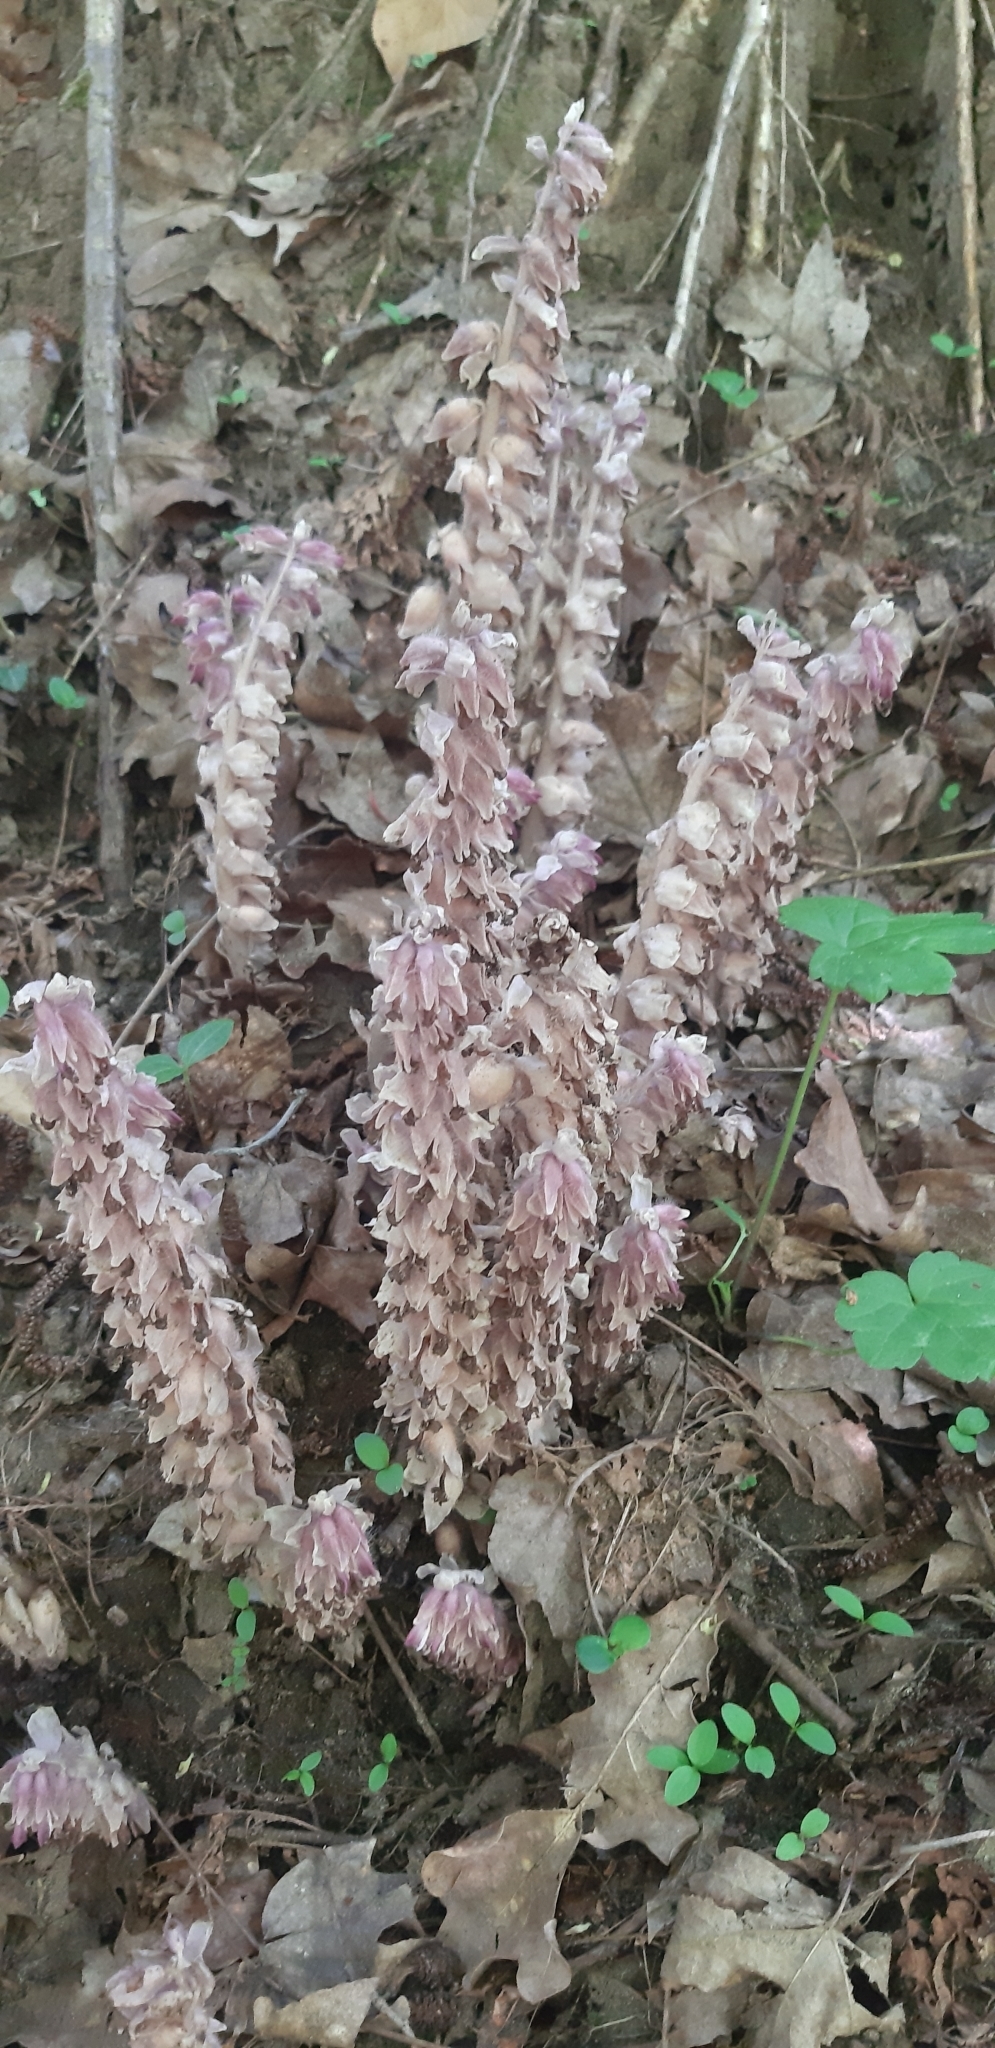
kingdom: Plantae
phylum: Tracheophyta
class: Magnoliopsida
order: Lamiales
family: Orobanchaceae
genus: Lathraea
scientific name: Lathraea squamaria
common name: Toothwort
